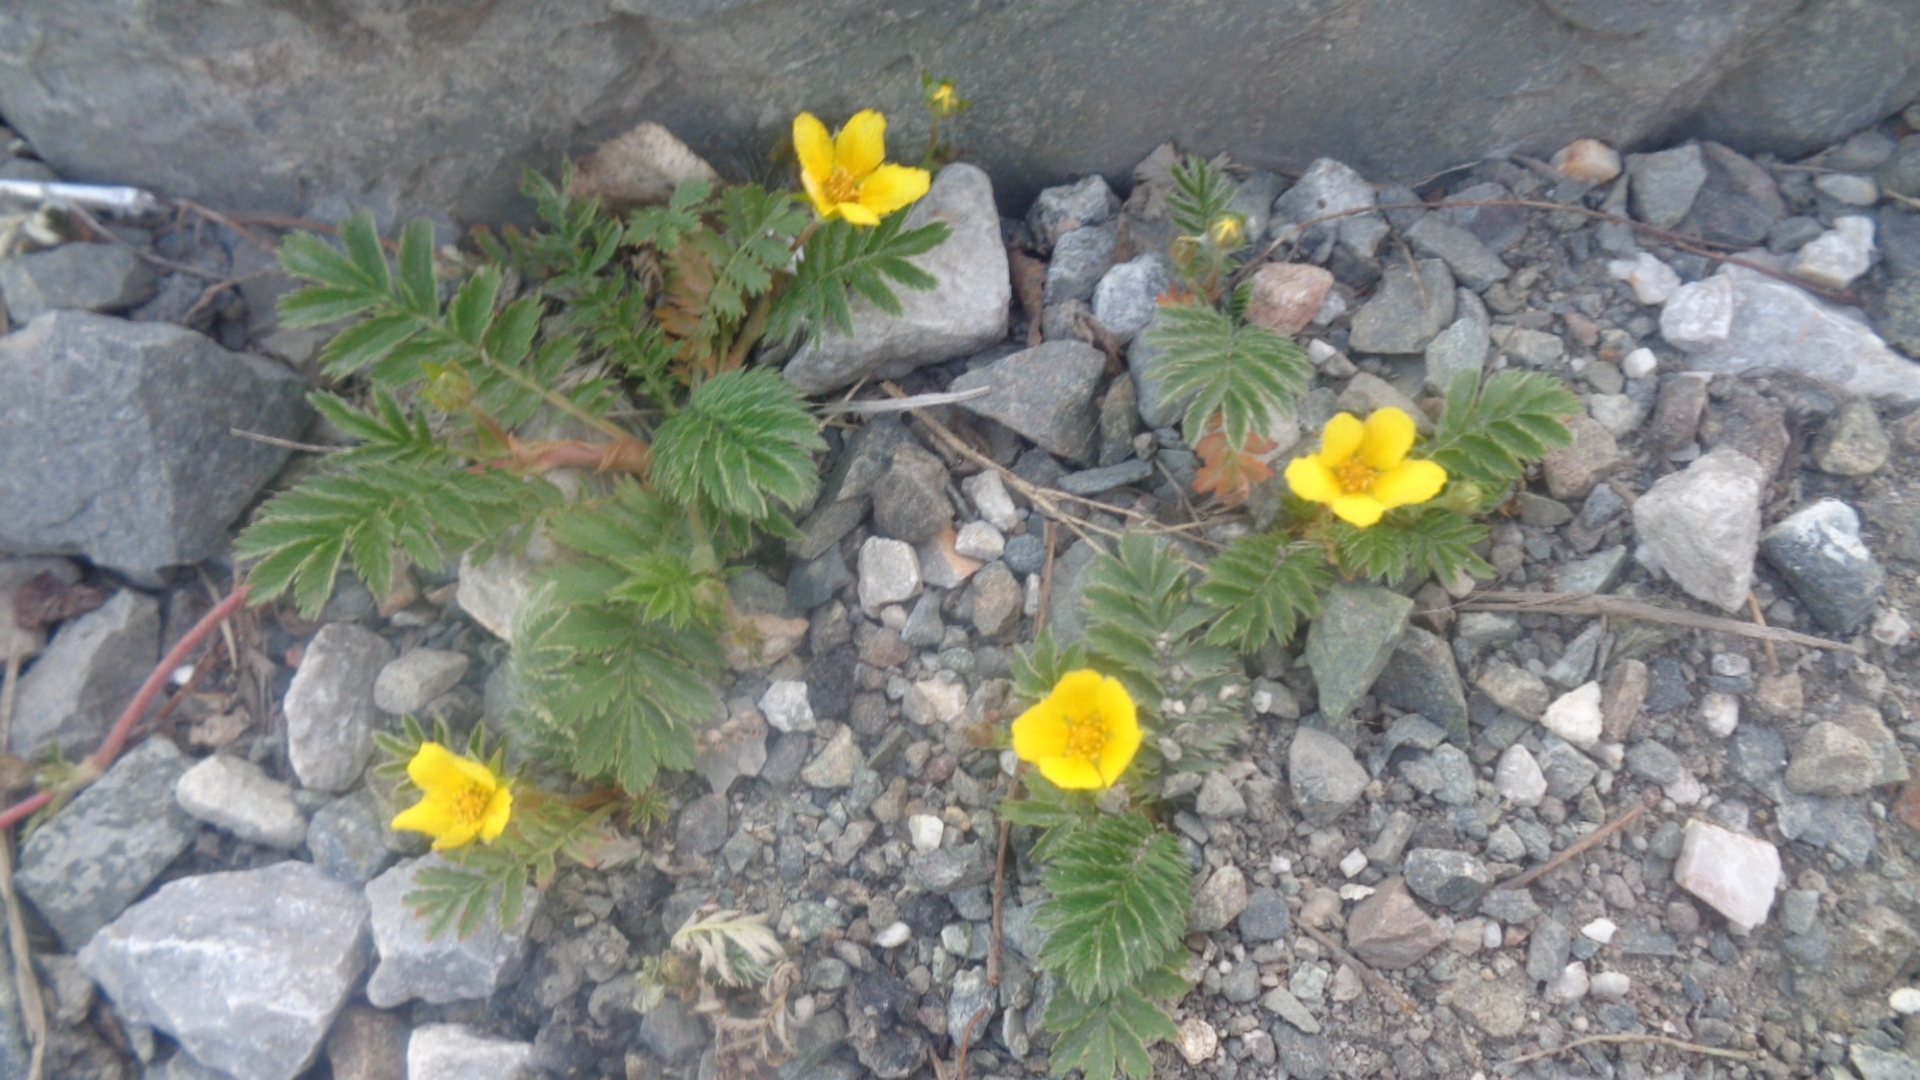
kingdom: Plantae
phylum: Tracheophyta
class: Magnoliopsida
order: Rosales
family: Rosaceae
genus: Argentina
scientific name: Argentina anserina
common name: Common silverweed
